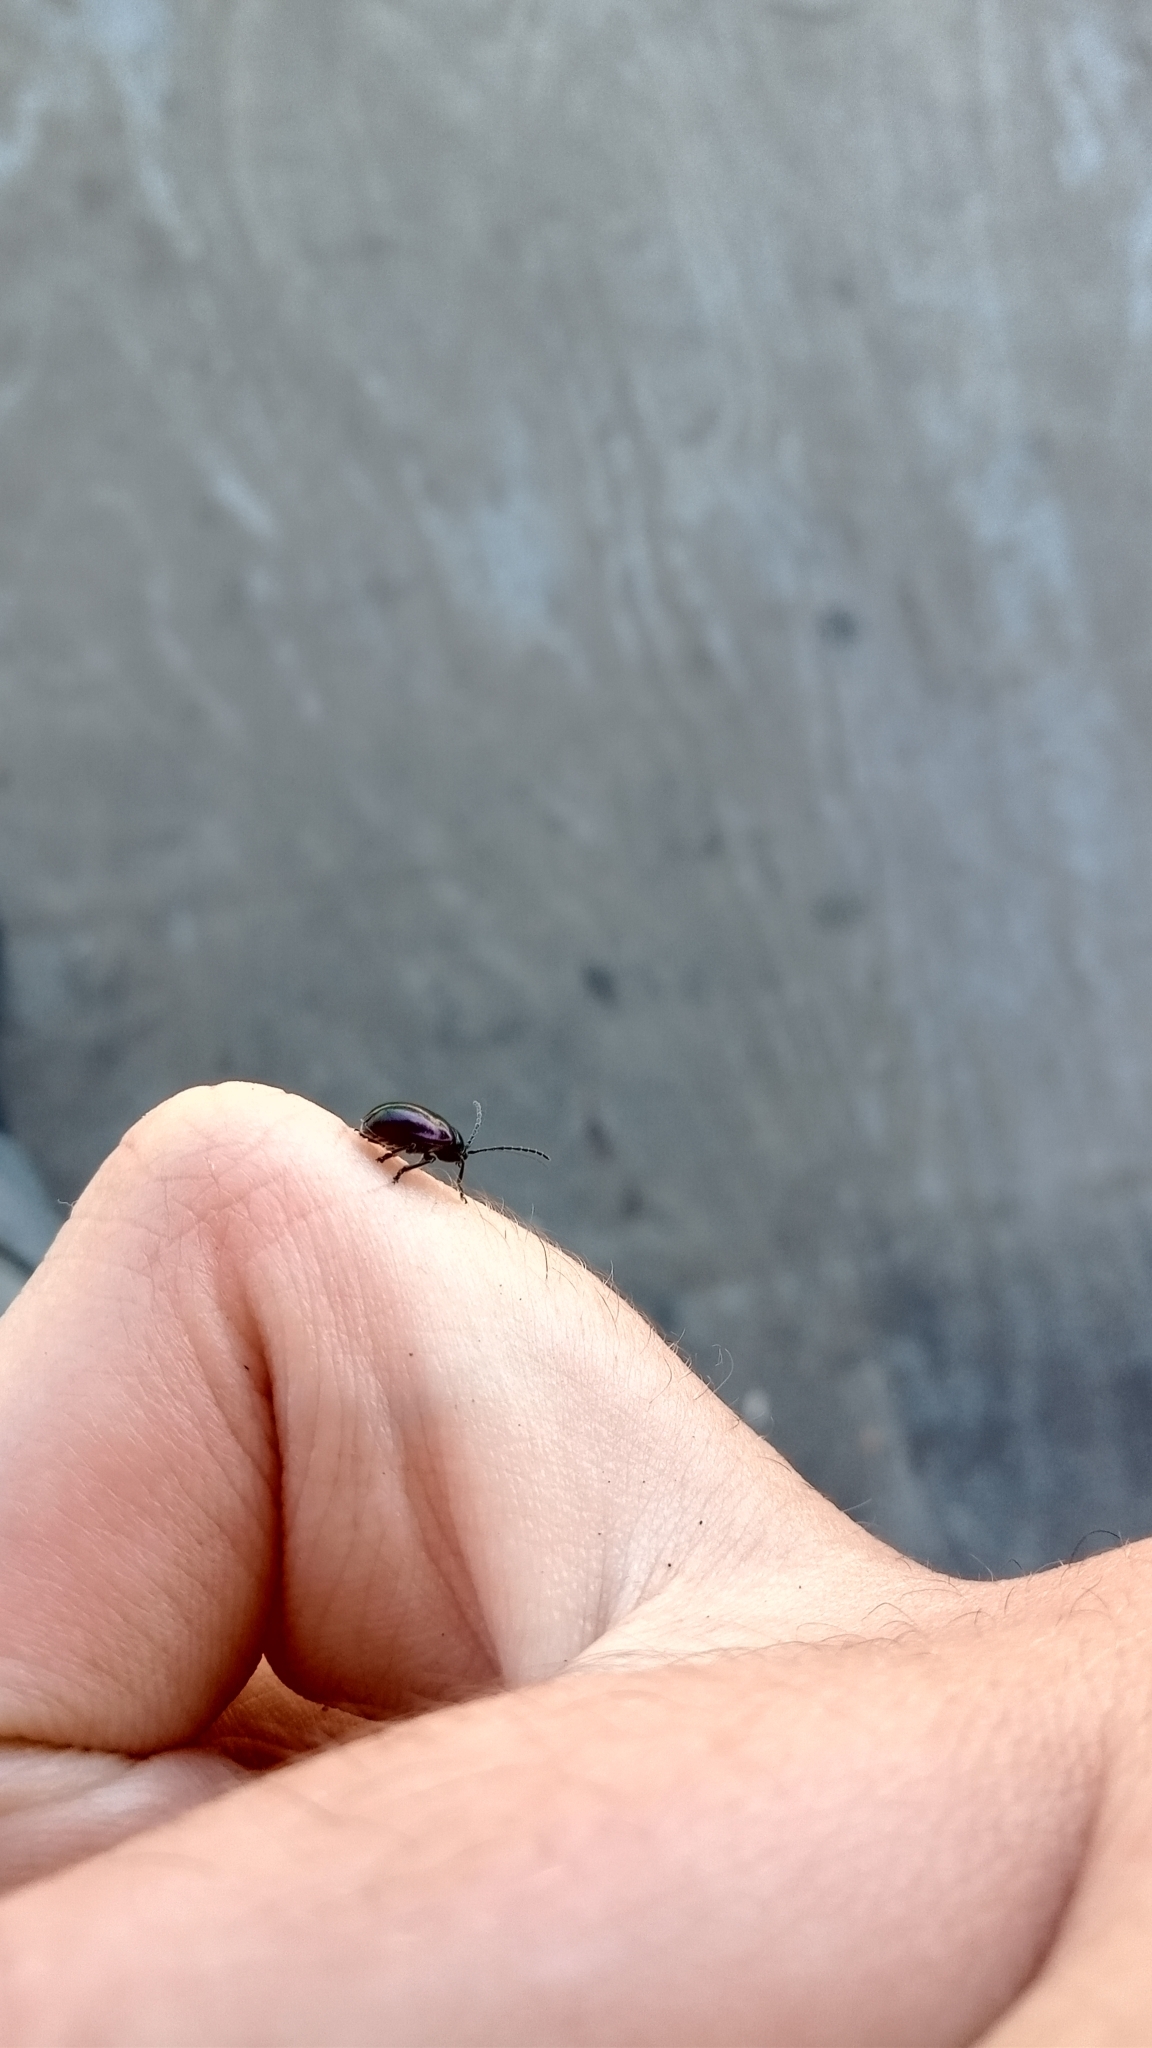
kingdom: Animalia
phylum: Arthropoda
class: Insecta
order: Coleoptera
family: Chrysomelidae
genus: Macrohaltica
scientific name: Macrohaltica
